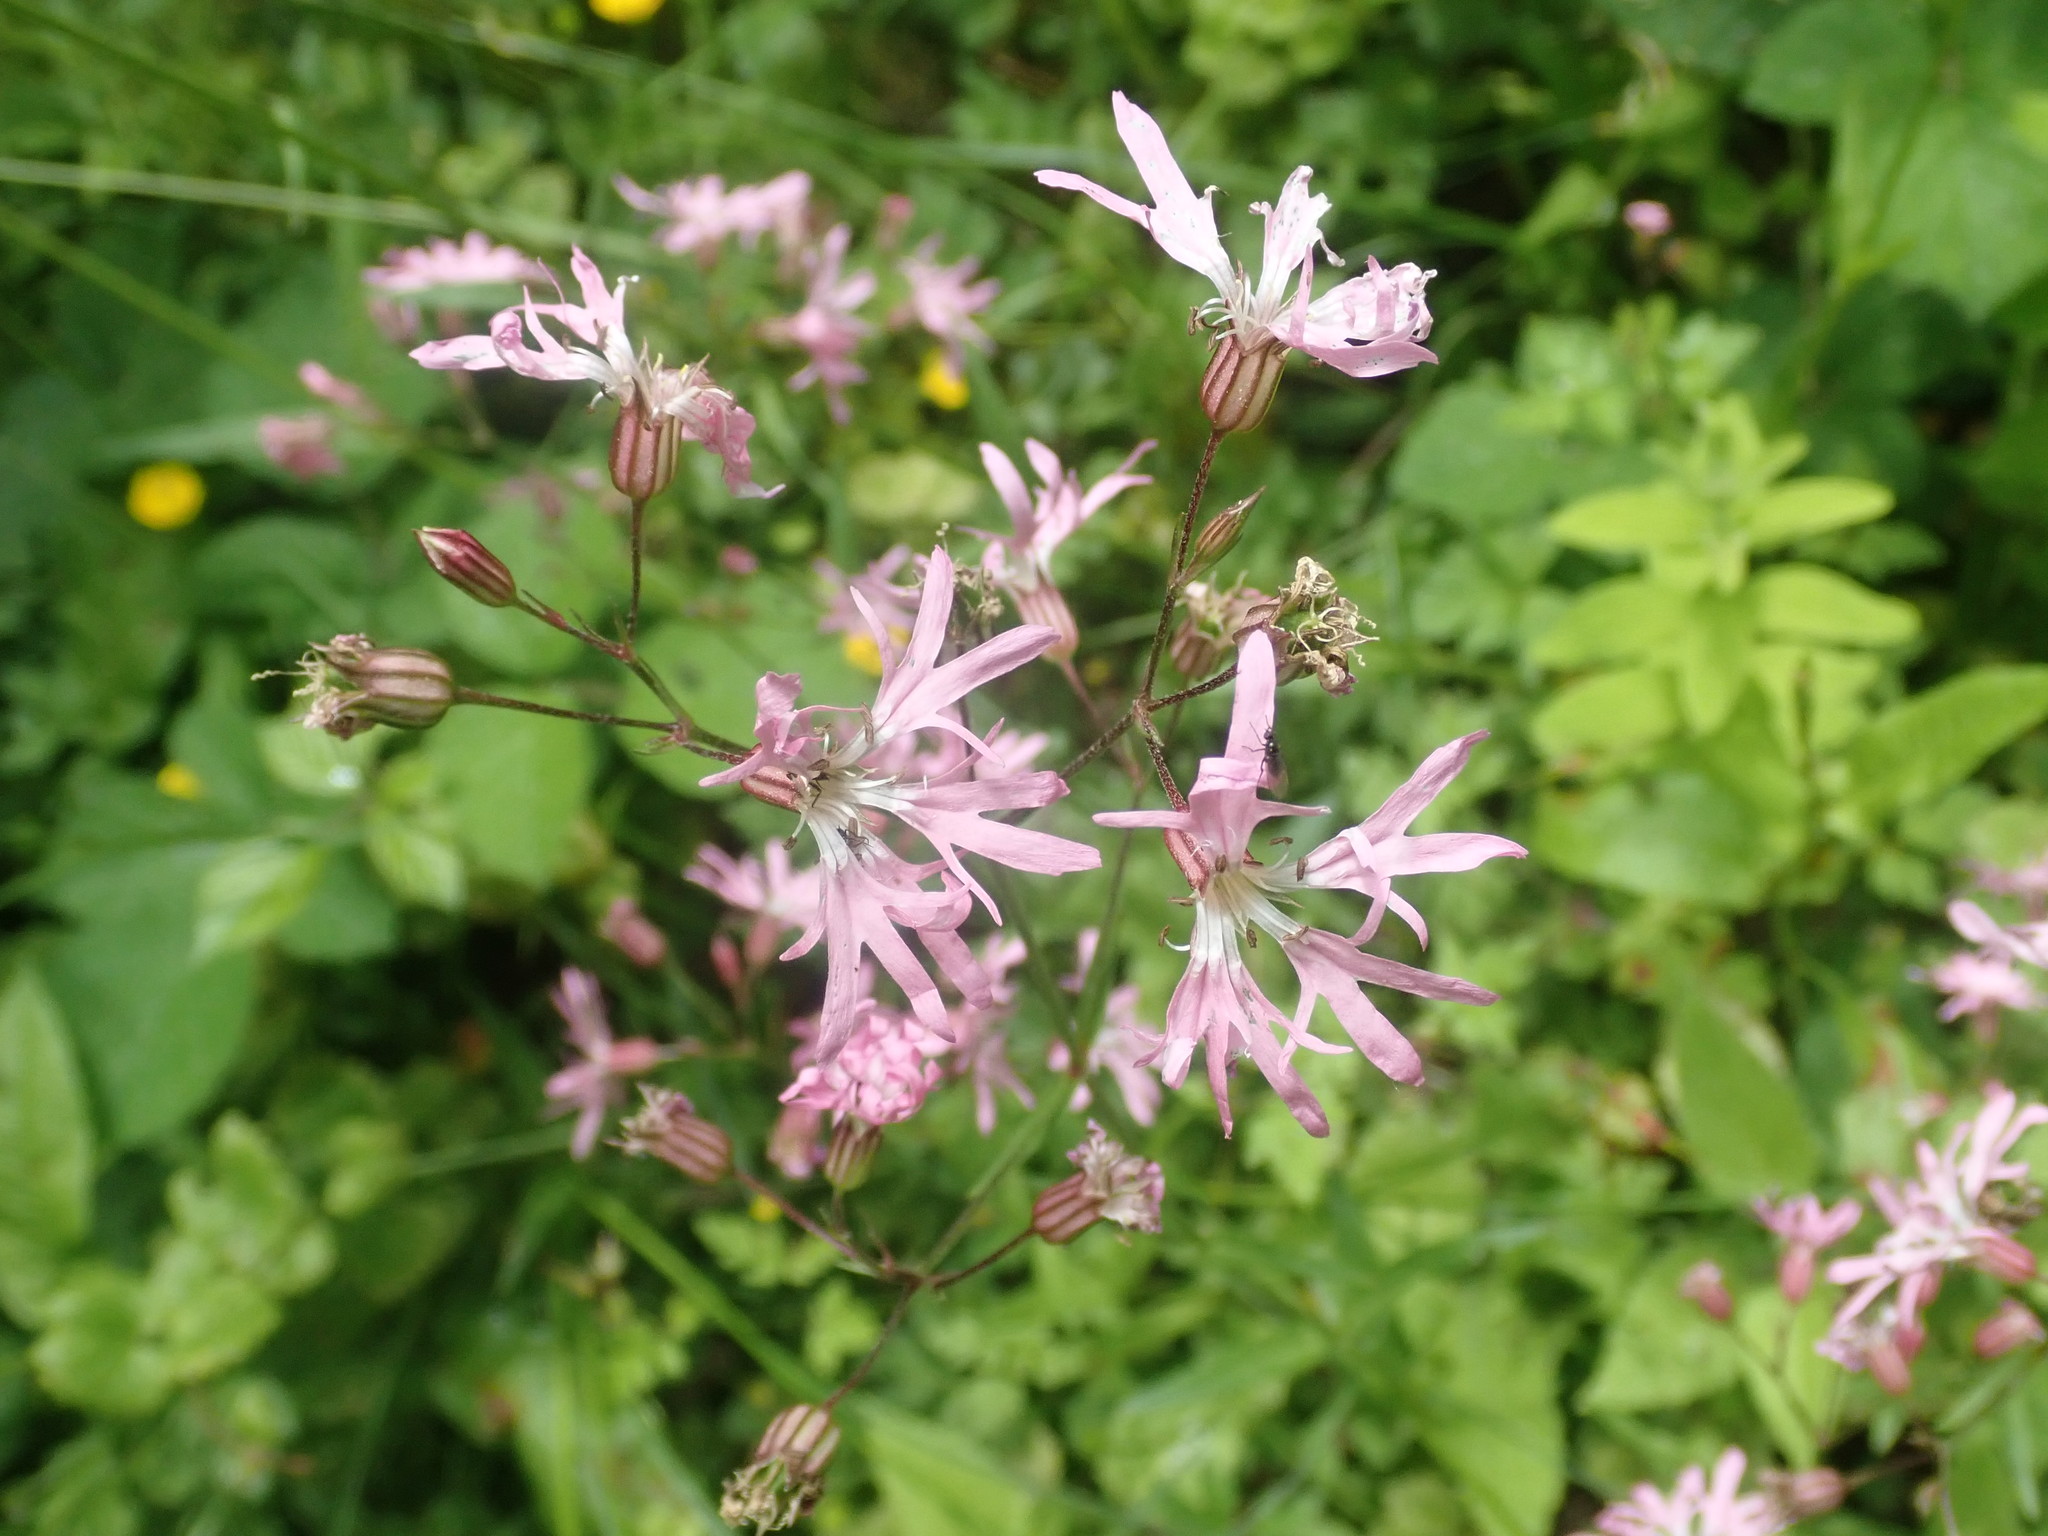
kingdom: Plantae
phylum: Tracheophyta
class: Magnoliopsida
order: Caryophyllales
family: Caryophyllaceae
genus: Silene
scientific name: Silene flos-cuculi
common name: Ragged-robin
